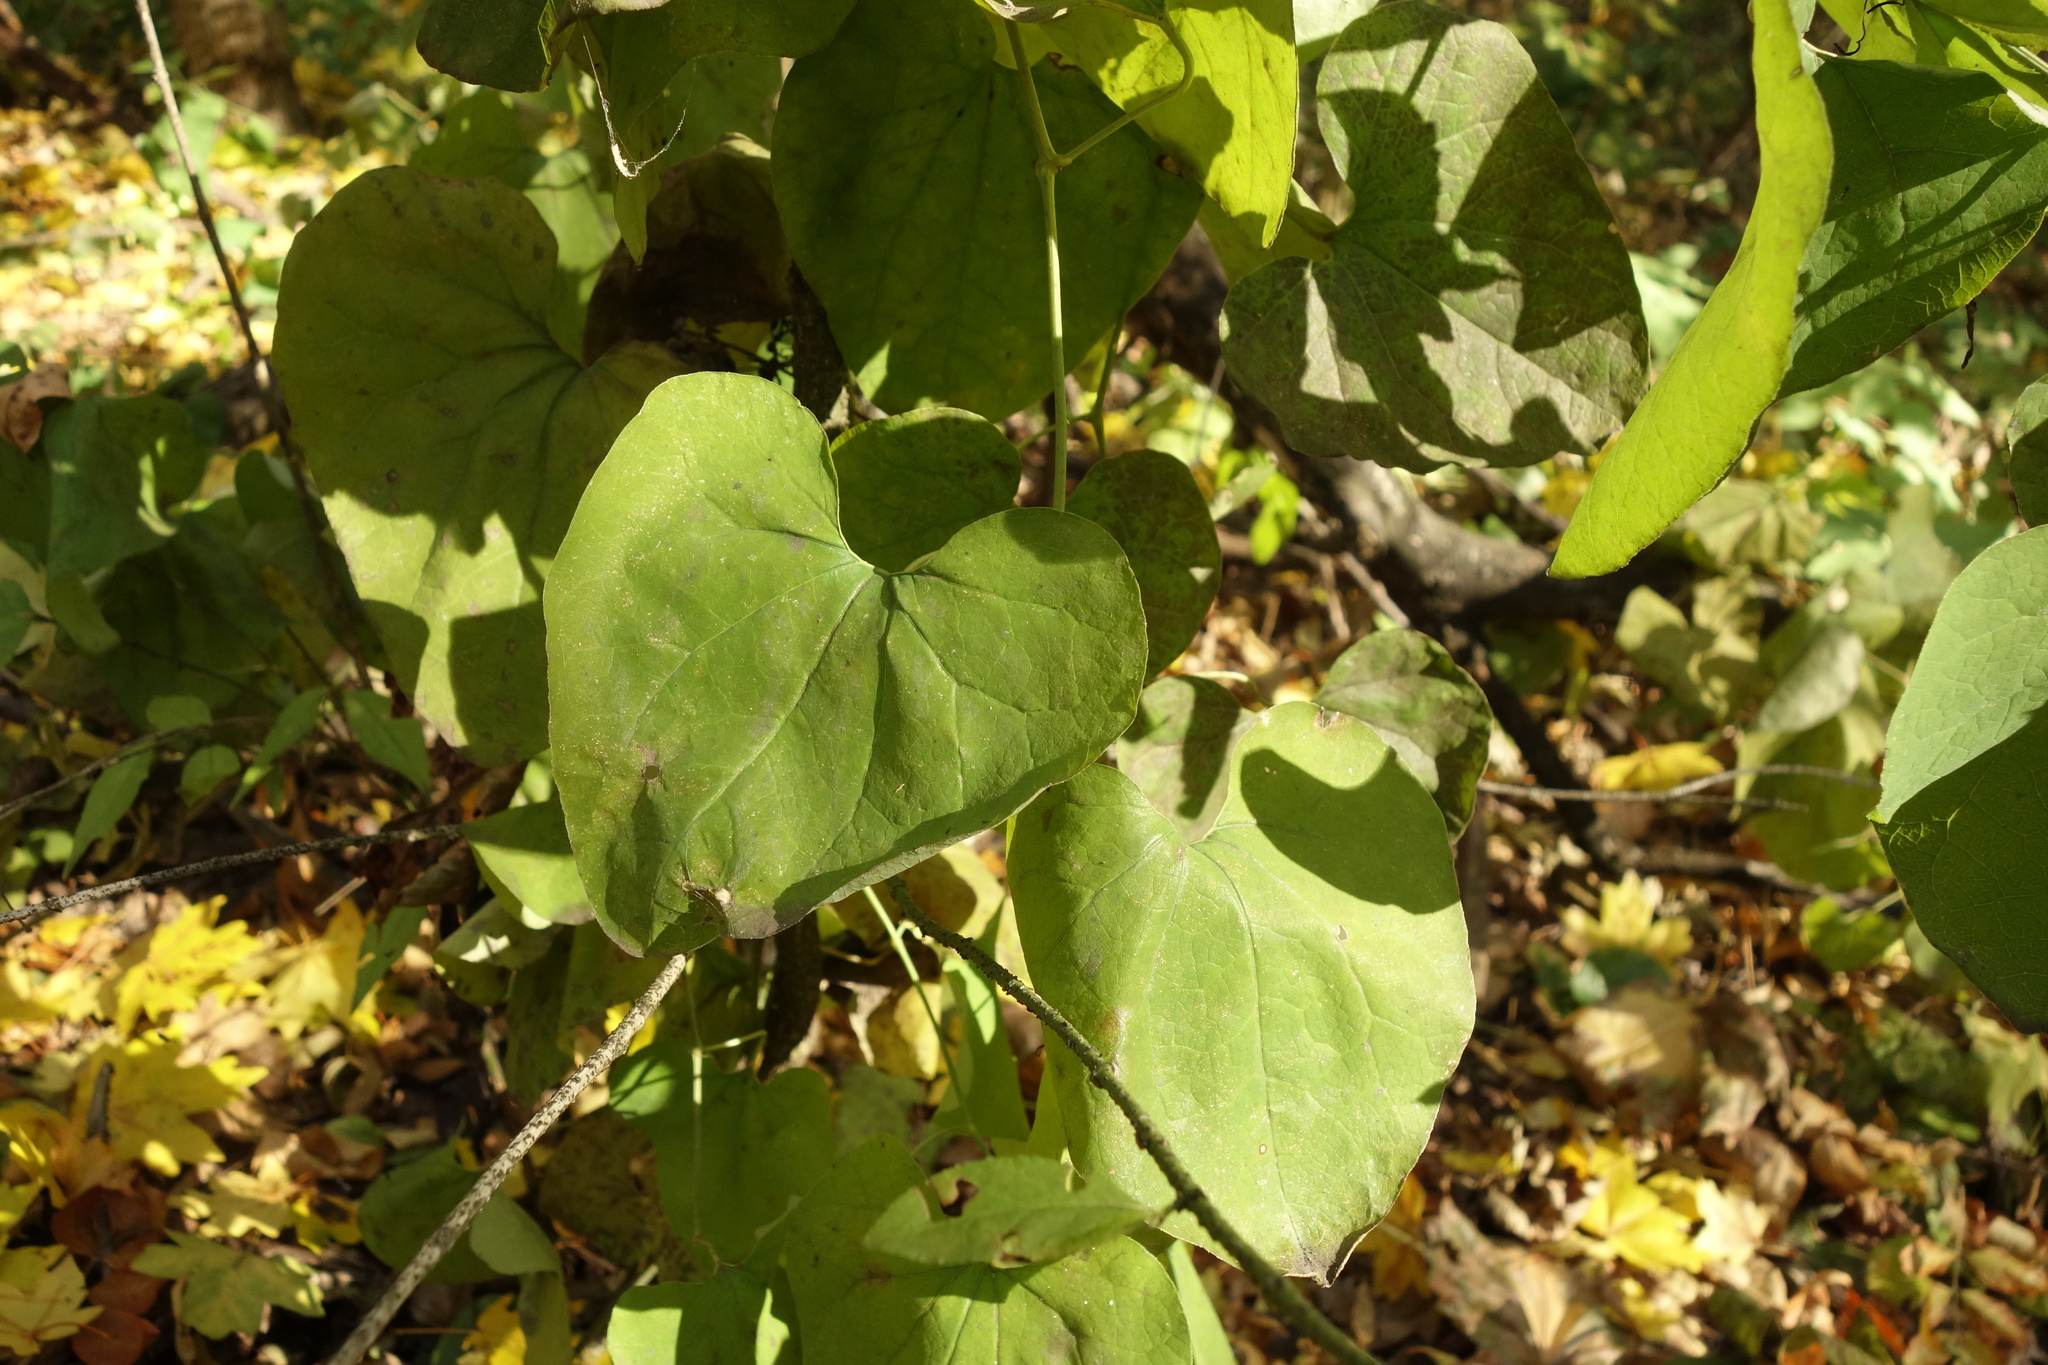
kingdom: Plantae
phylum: Tracheophyta
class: Magnoliopsida
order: Piperales
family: Aristolochiaceae
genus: Aristolochia
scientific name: Aristolochia clematitis
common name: Birthwort
